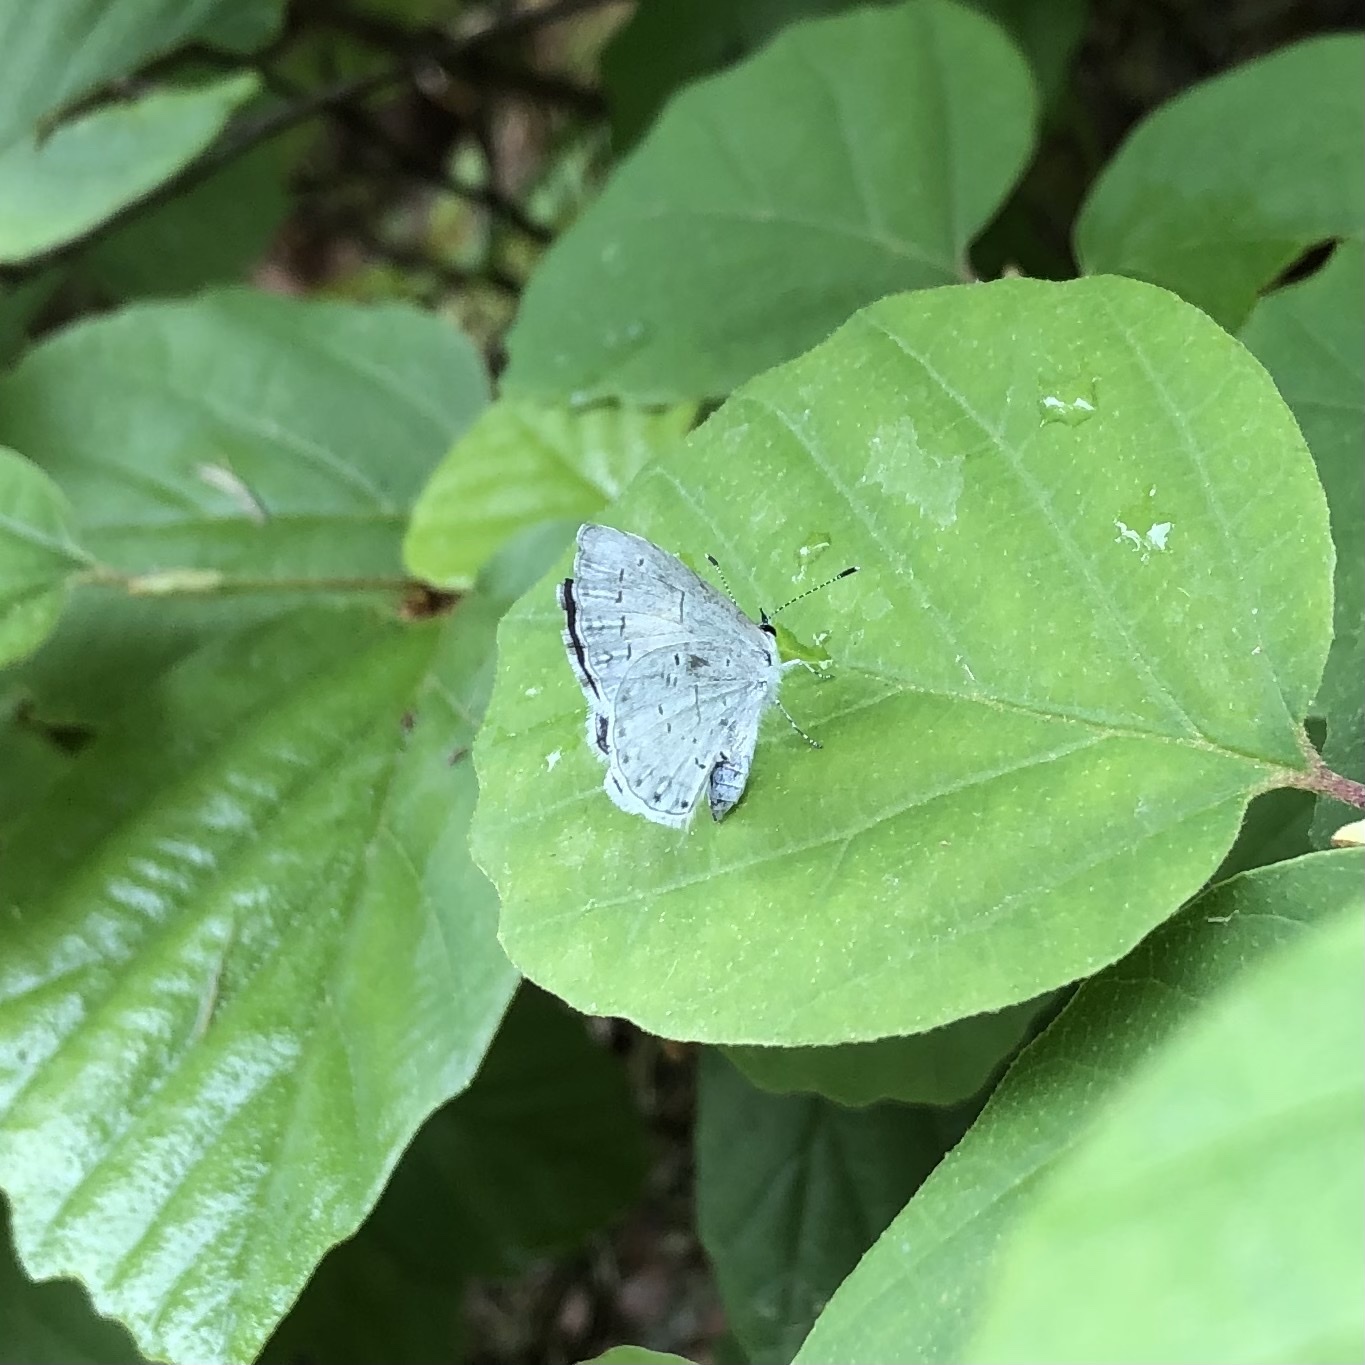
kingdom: Animalia
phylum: Arthropoda
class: Insecta
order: Lepidoptera
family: Lycaenidae
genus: Cyaniris
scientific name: Cyaniris neglecta
